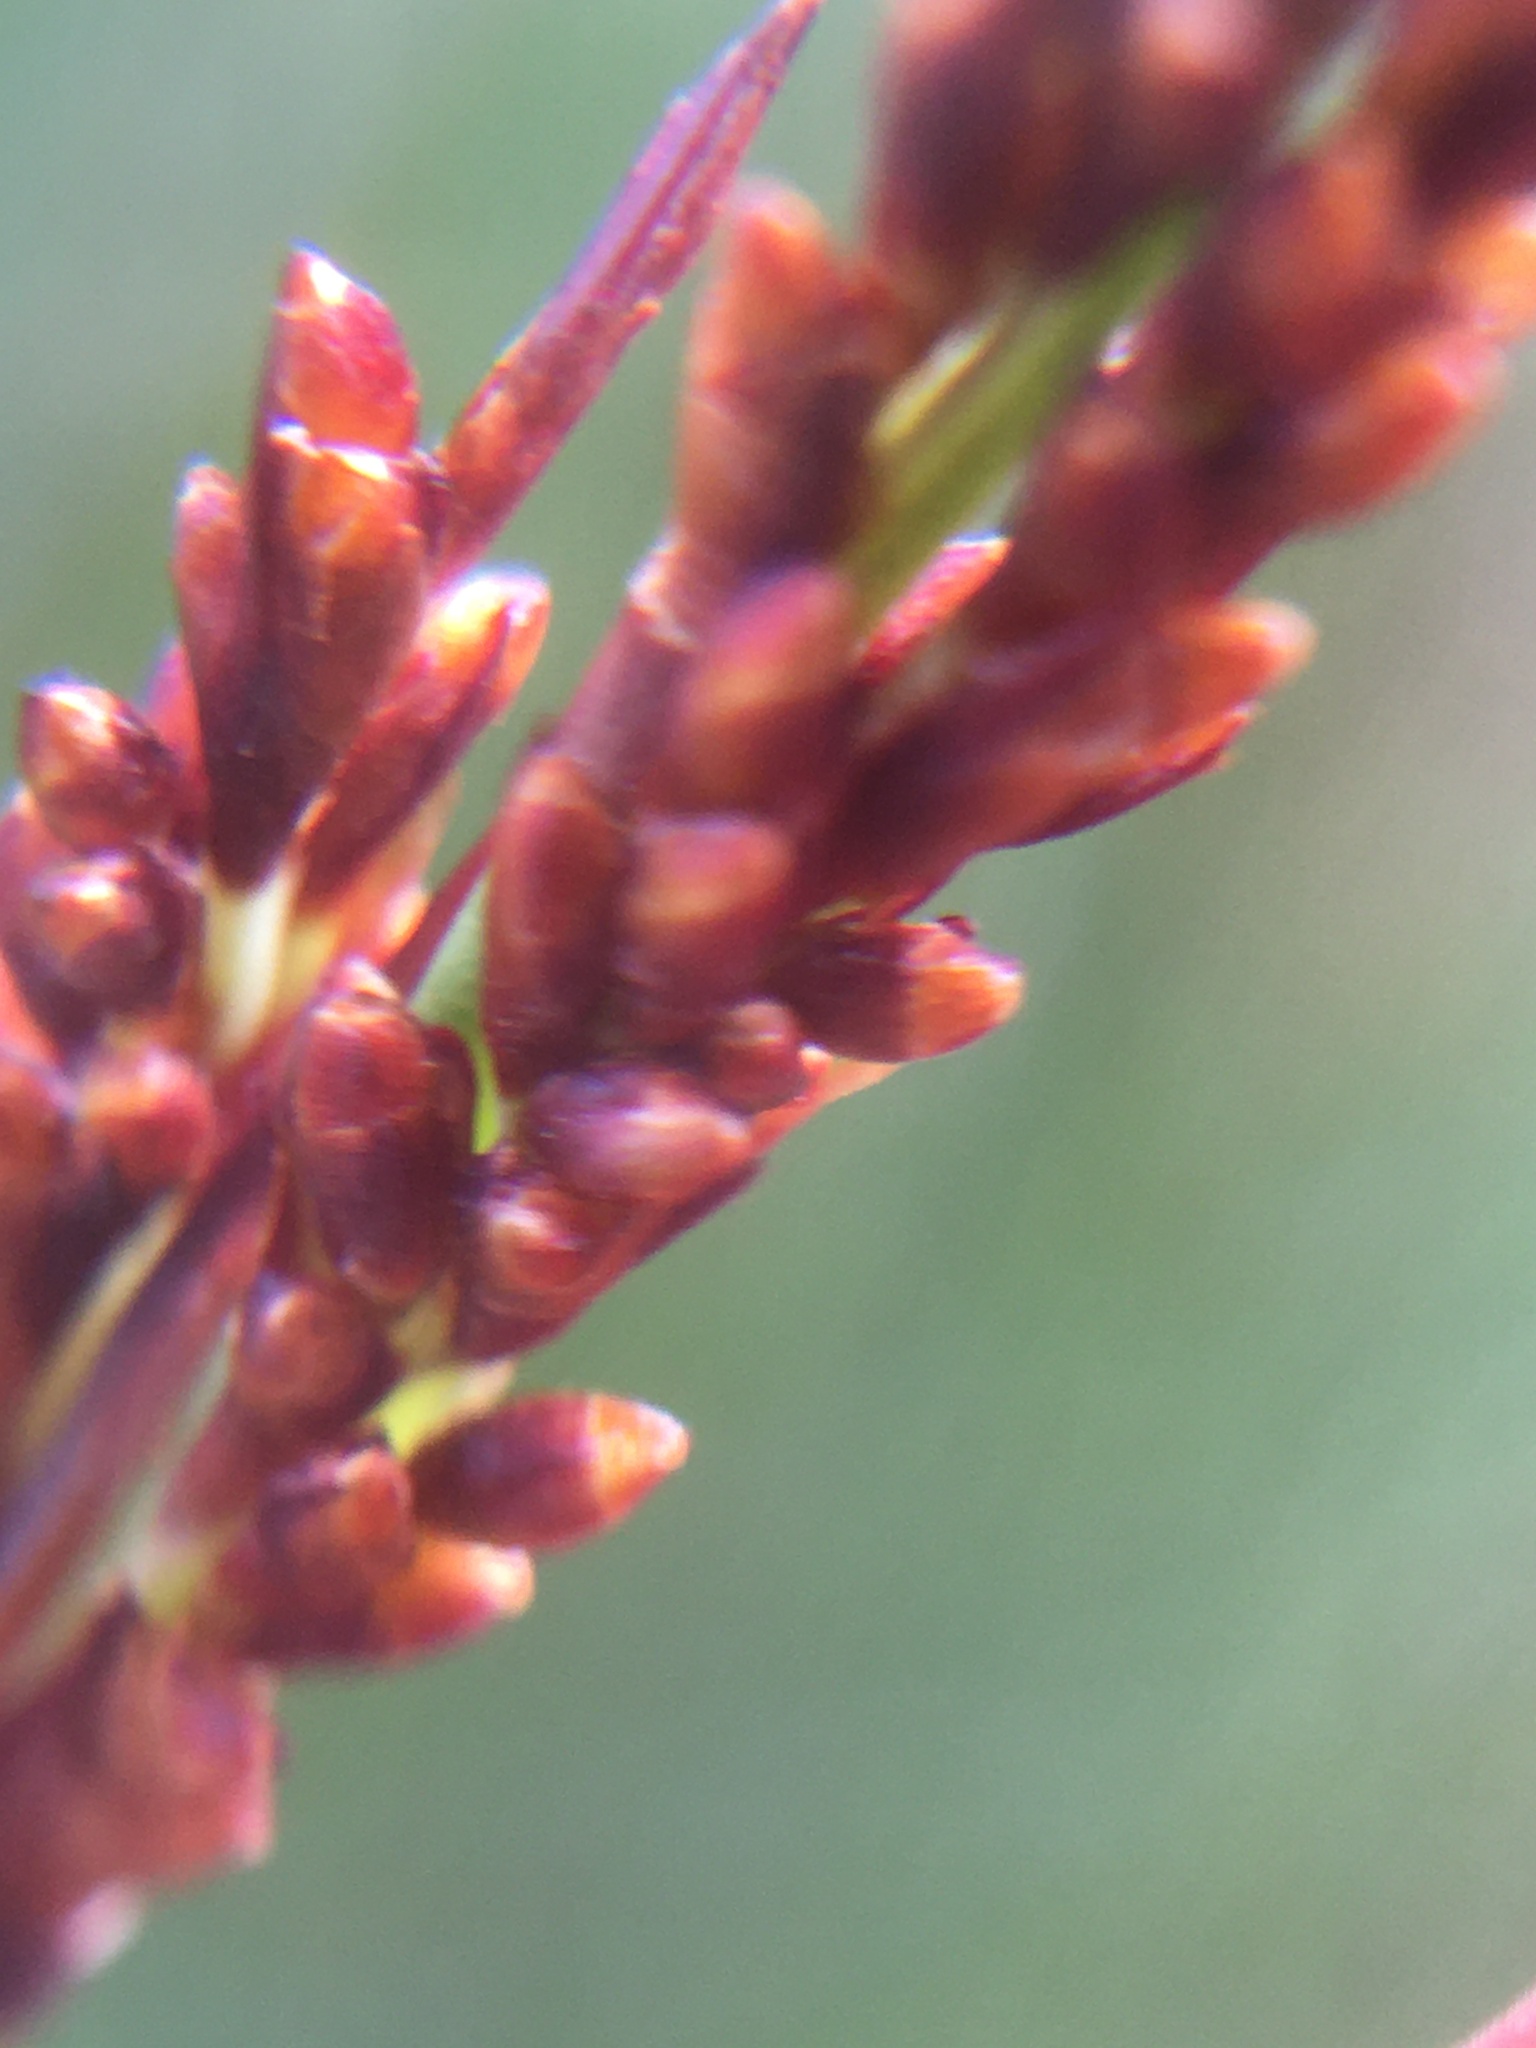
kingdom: Plantae
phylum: Tracheophyta
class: Liliopsida
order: Poales
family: Restionaceae
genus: Elegia
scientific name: Elegia tectorum
